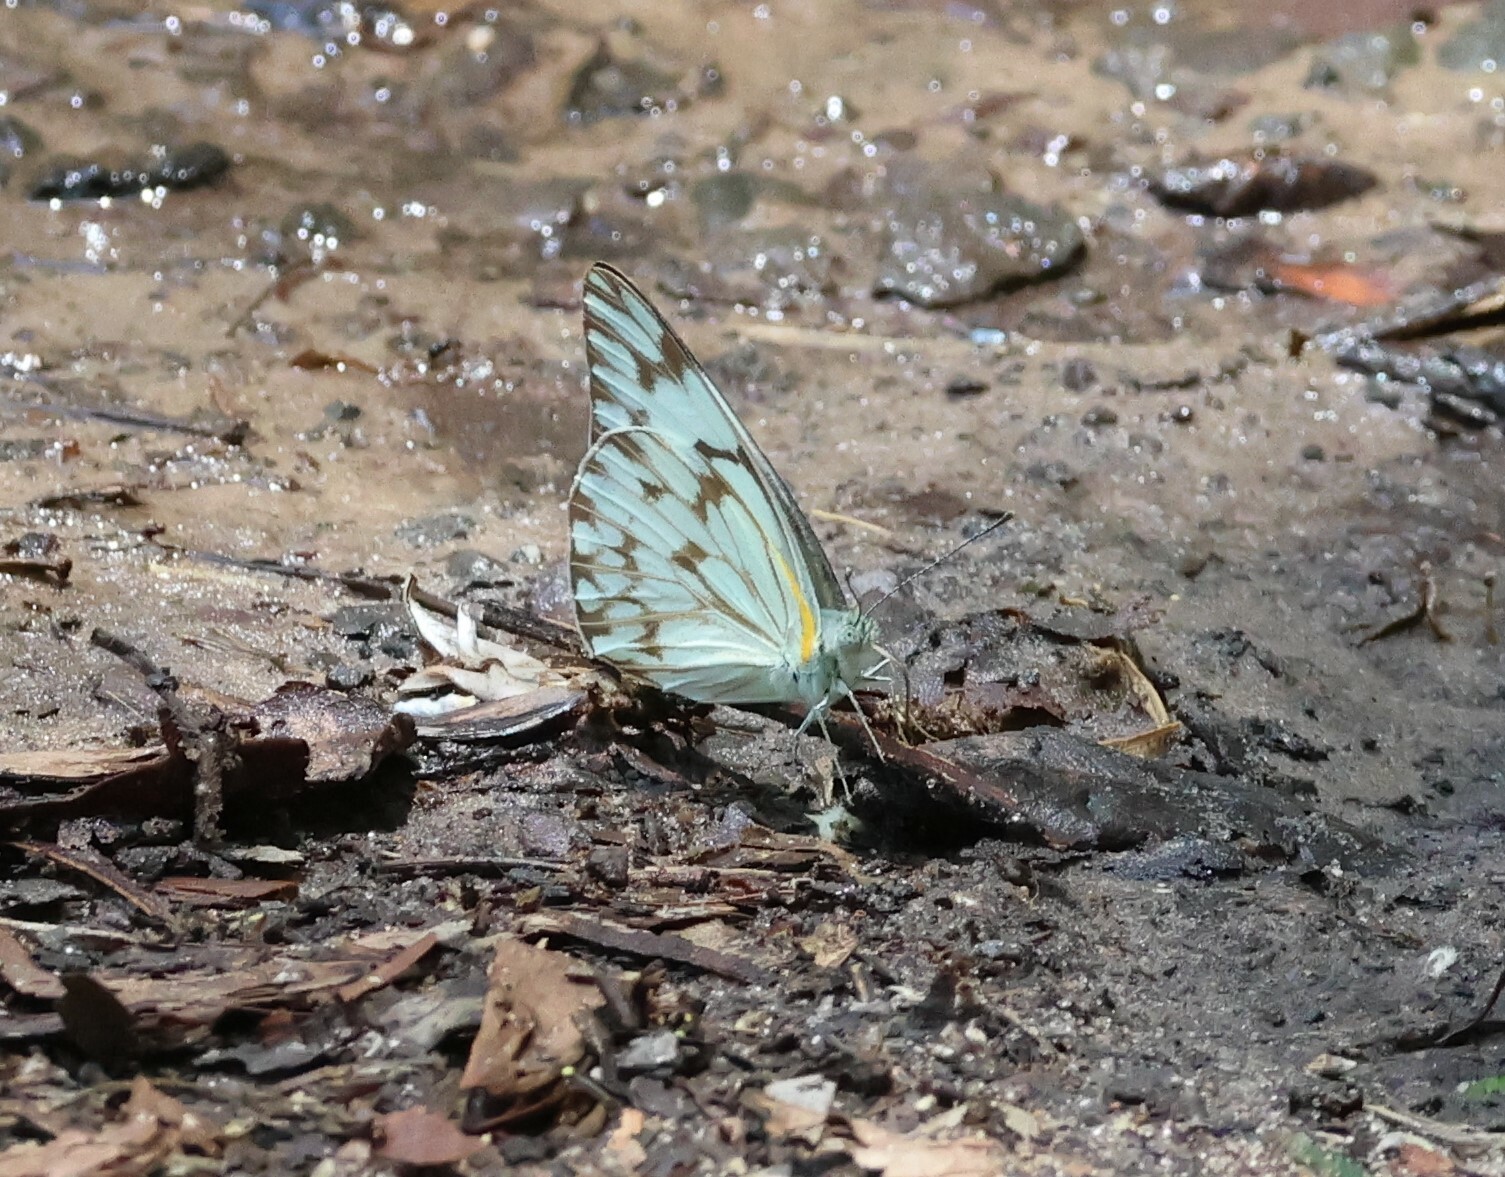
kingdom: Animalia
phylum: Arthropoda
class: Insecta
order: Lepidoptera
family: Pieridae
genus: Belenois
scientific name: Belenois gidica
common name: Pointed caper white
